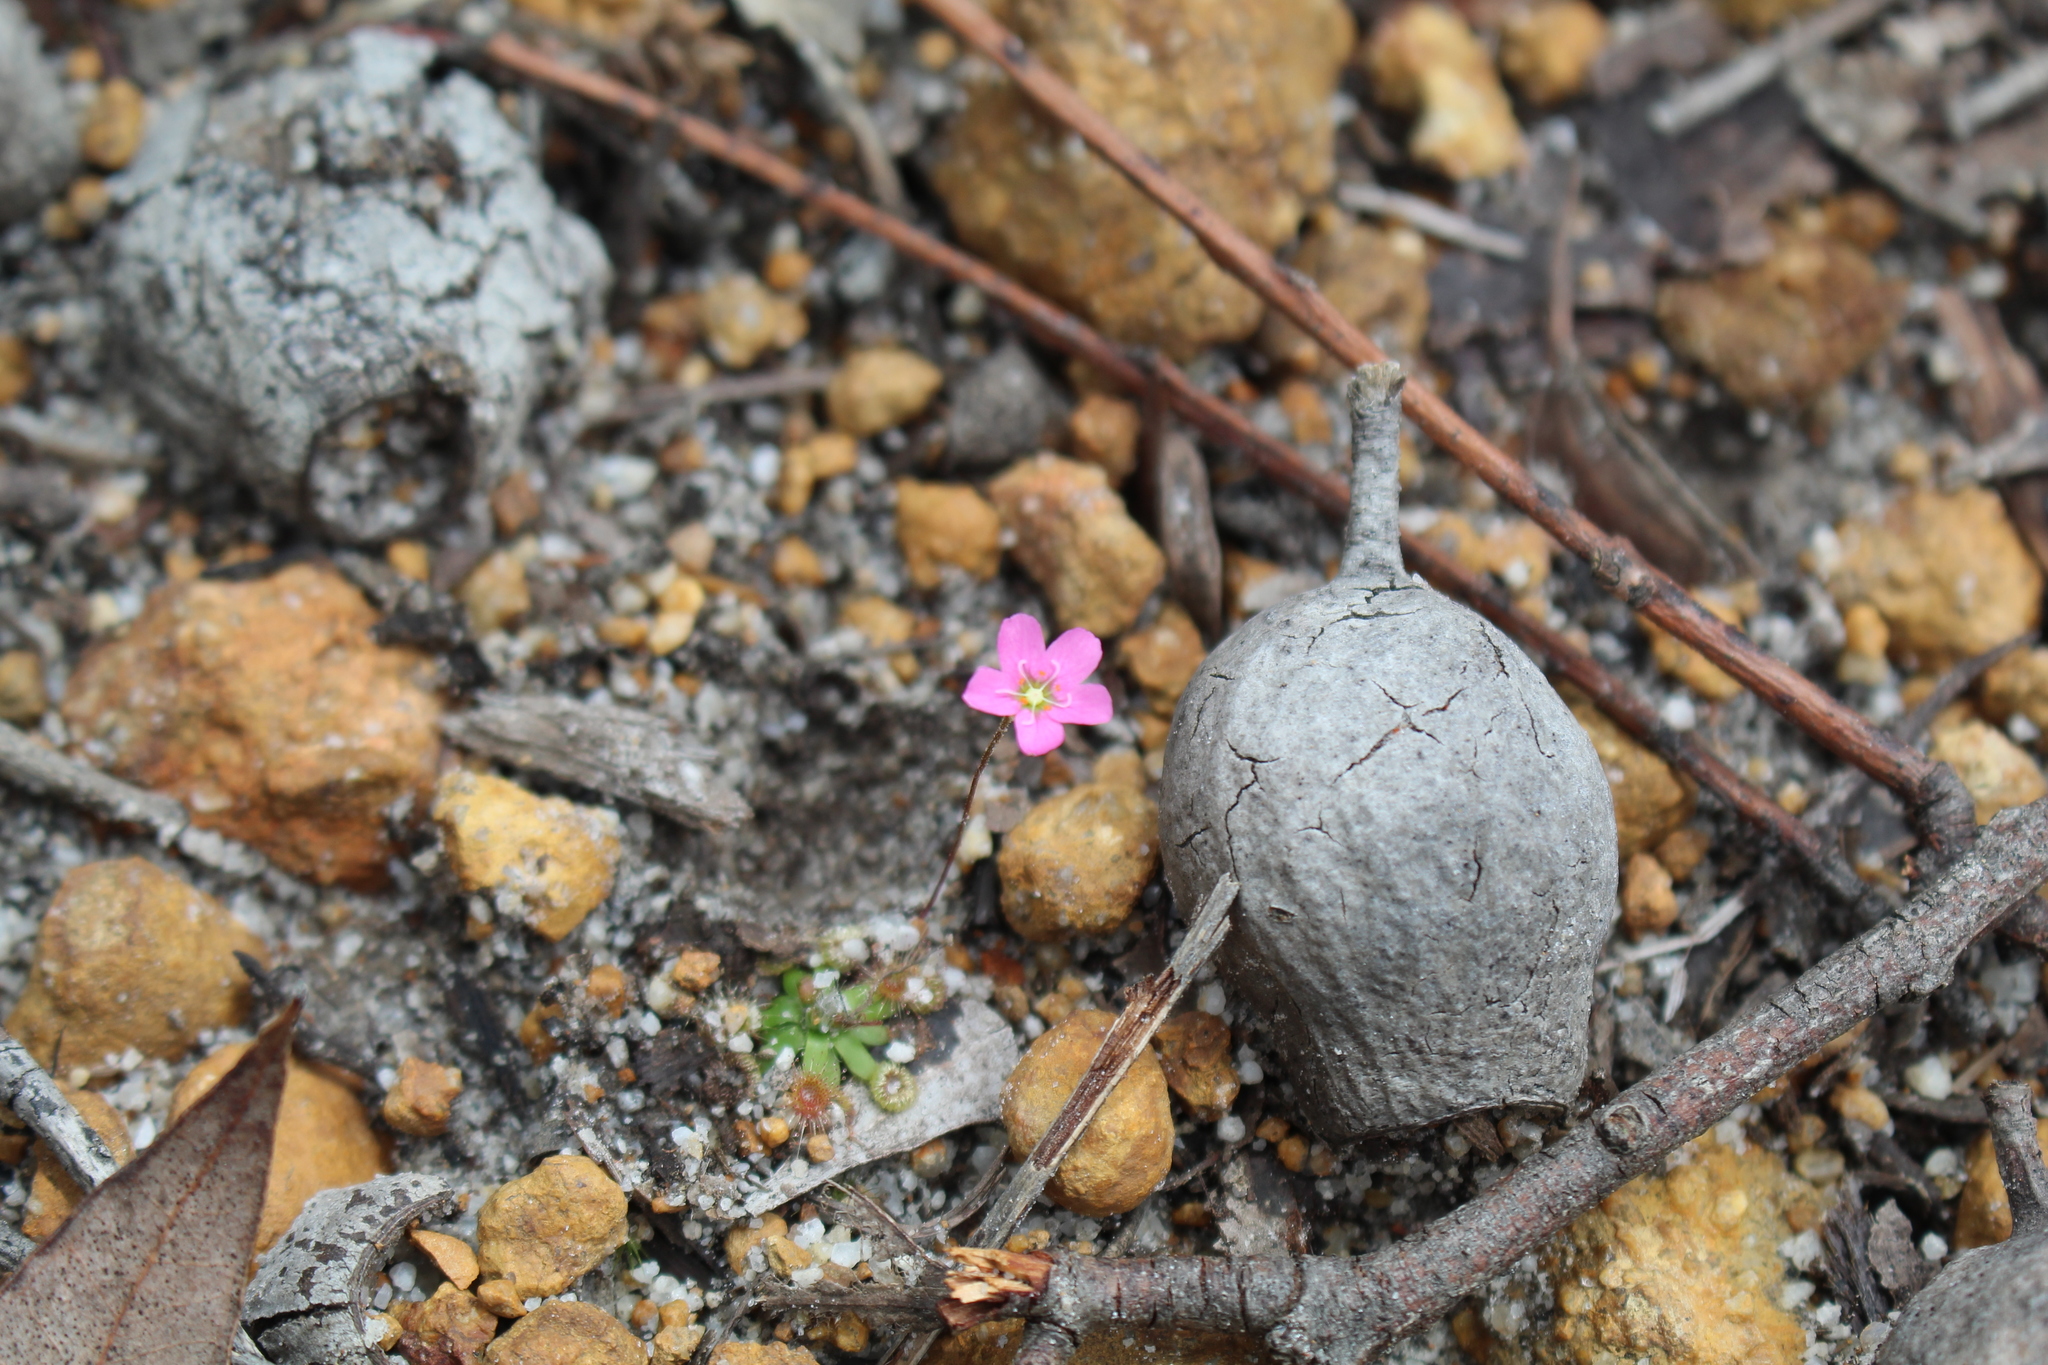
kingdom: Plantae
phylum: Tracheophyta
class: Magnoliopsida
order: Caryophyllales
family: Droseraceae
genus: Drosera
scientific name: Drosera pulchella
